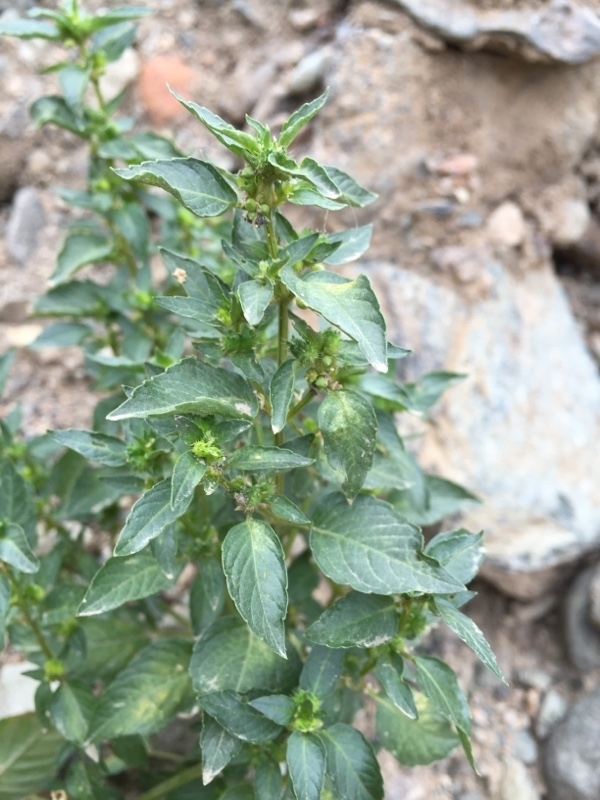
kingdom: Plantae
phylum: Tracheophyta
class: Magnoliopsida
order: Malpighiales
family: Euphorbiaceae
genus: Mercurialis
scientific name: Mercurialis annua
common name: Annual mercury
